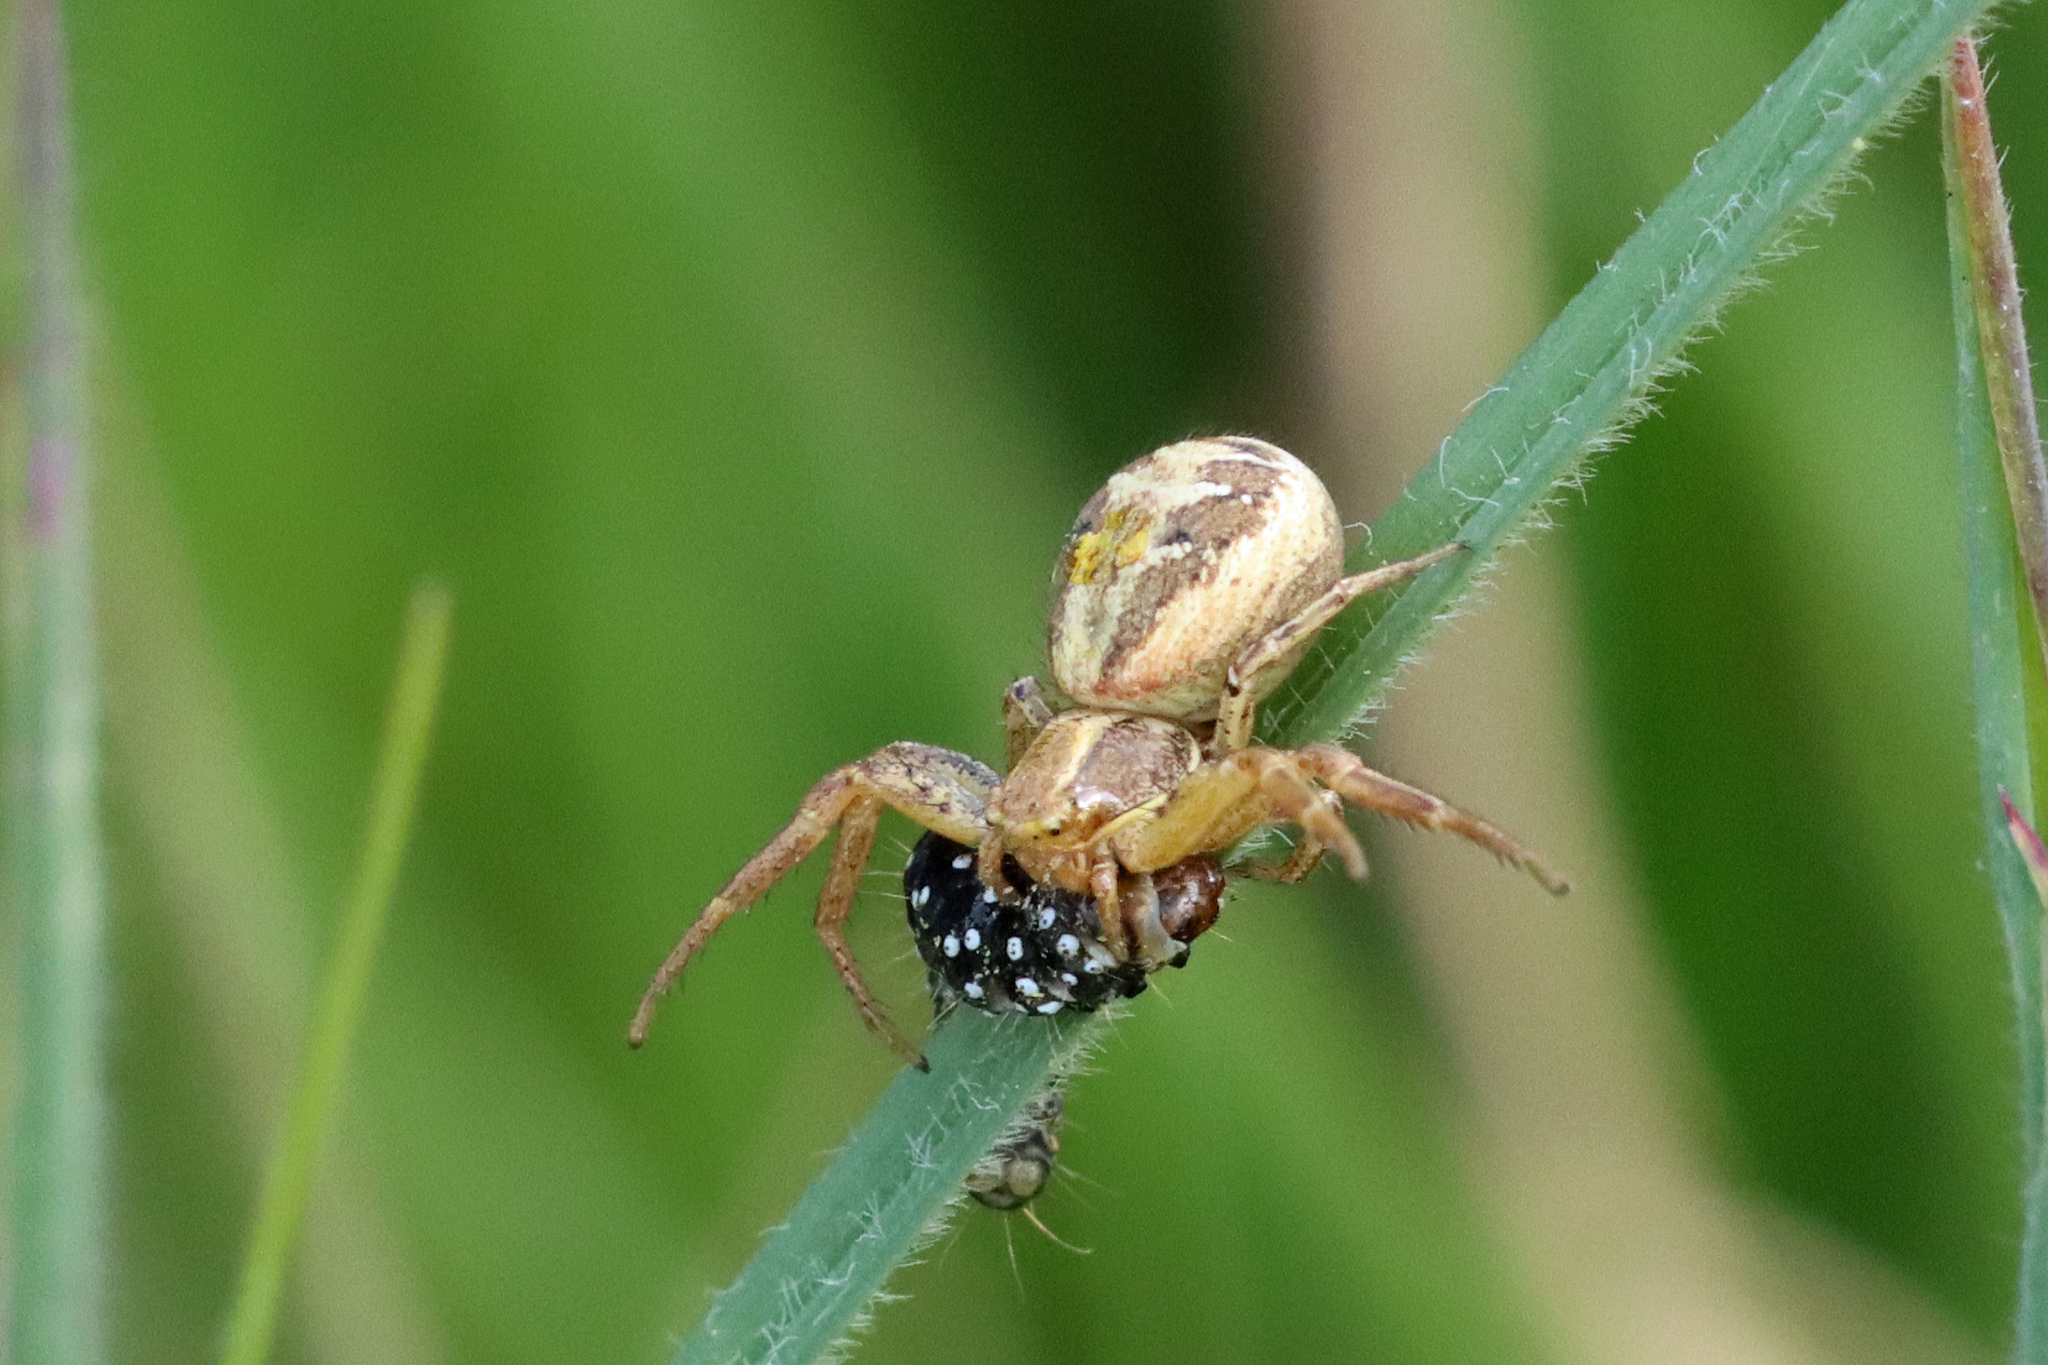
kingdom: Animalia
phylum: Arthropoda
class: Arachnida
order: Araneae
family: Thomisidae
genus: Xysticus
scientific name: Xysticus
